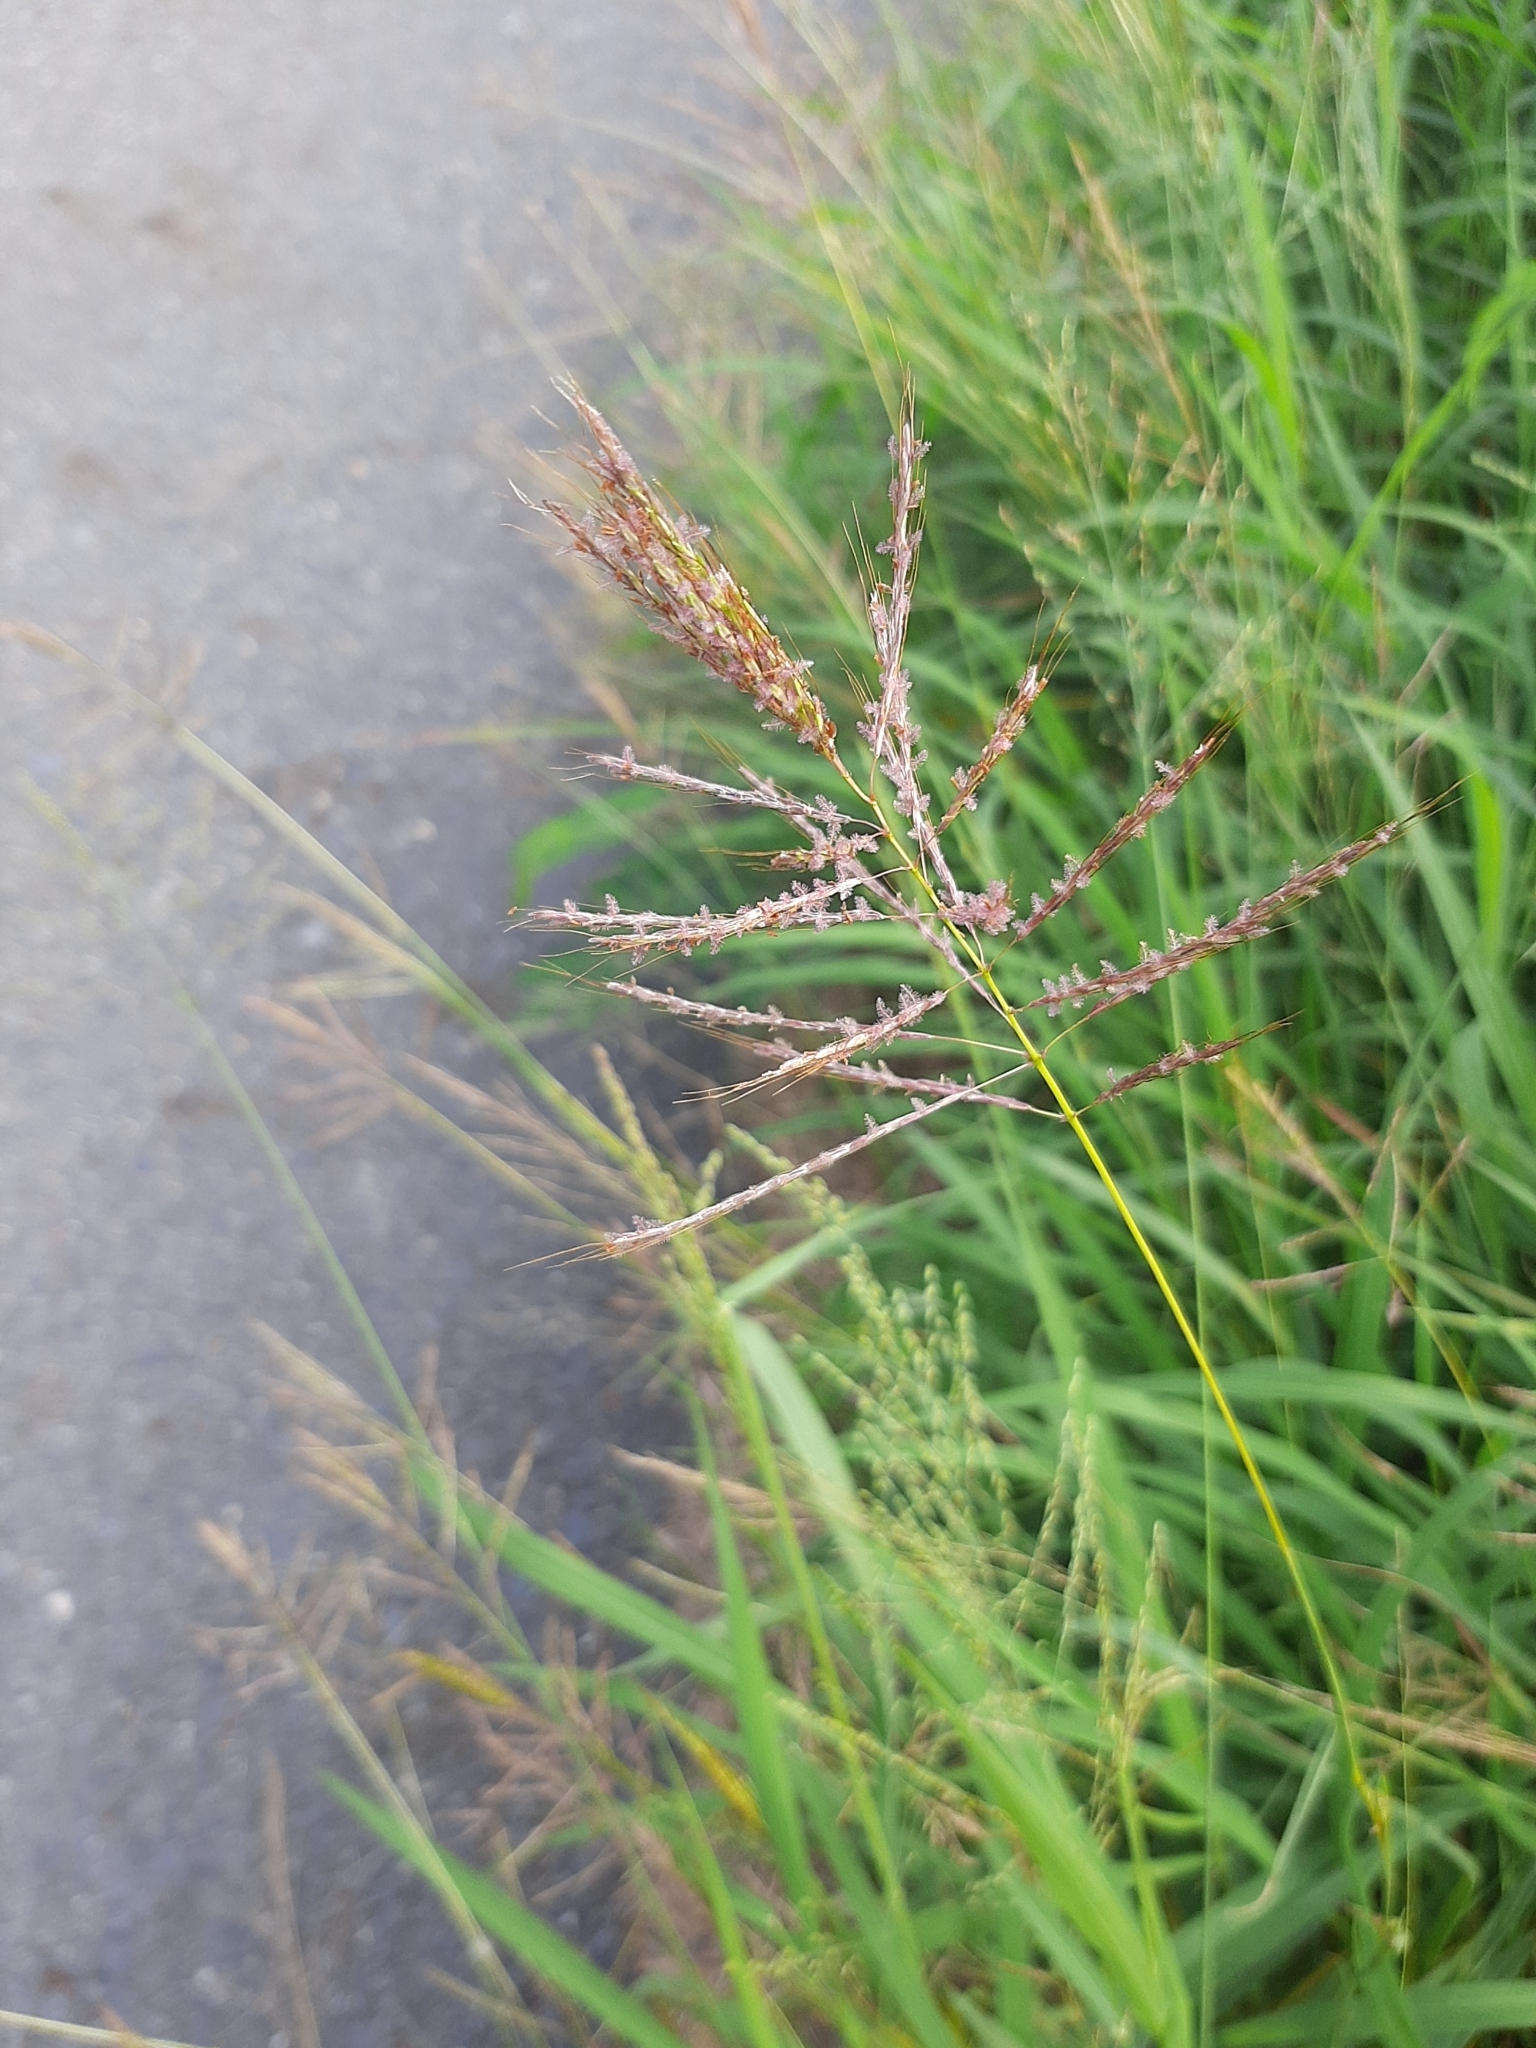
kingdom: Plantae
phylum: Tracheophyta
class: Liliopsida
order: Poales
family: Poaceae
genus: Bothriochloa
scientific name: Bothriochloa glabra
